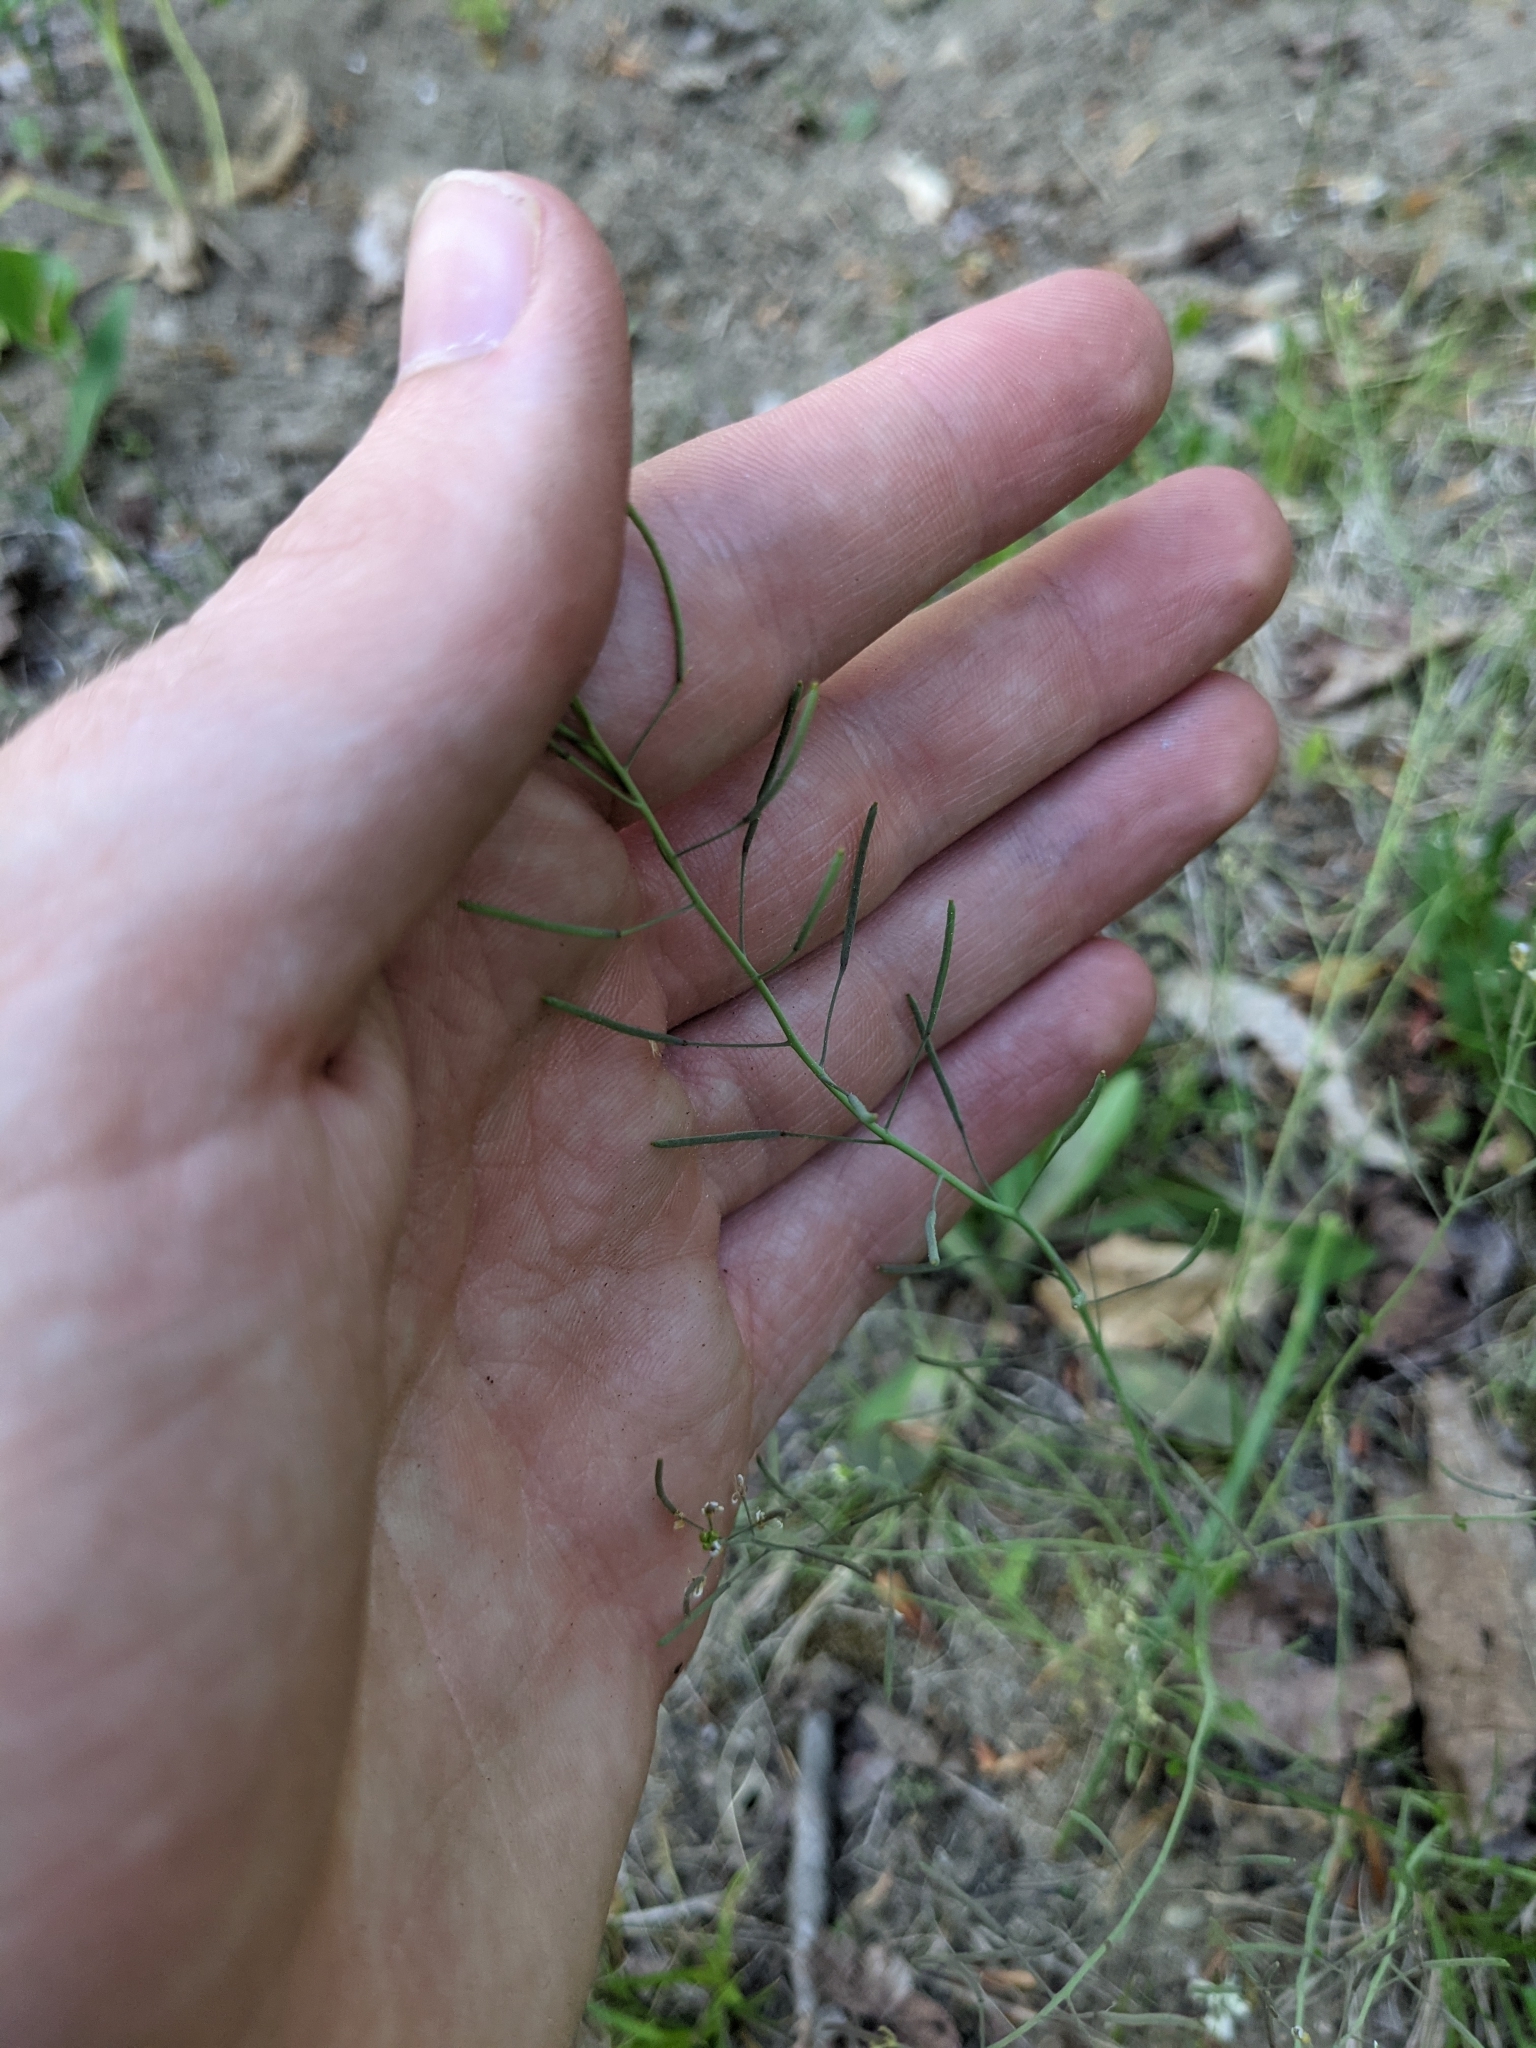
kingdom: Plantae
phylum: Tracheophyta
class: Magnoliopsida
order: Brassicales
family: Brassicaceae
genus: Arabidopsis
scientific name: Arabidopsis thaliana
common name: Thale cress
